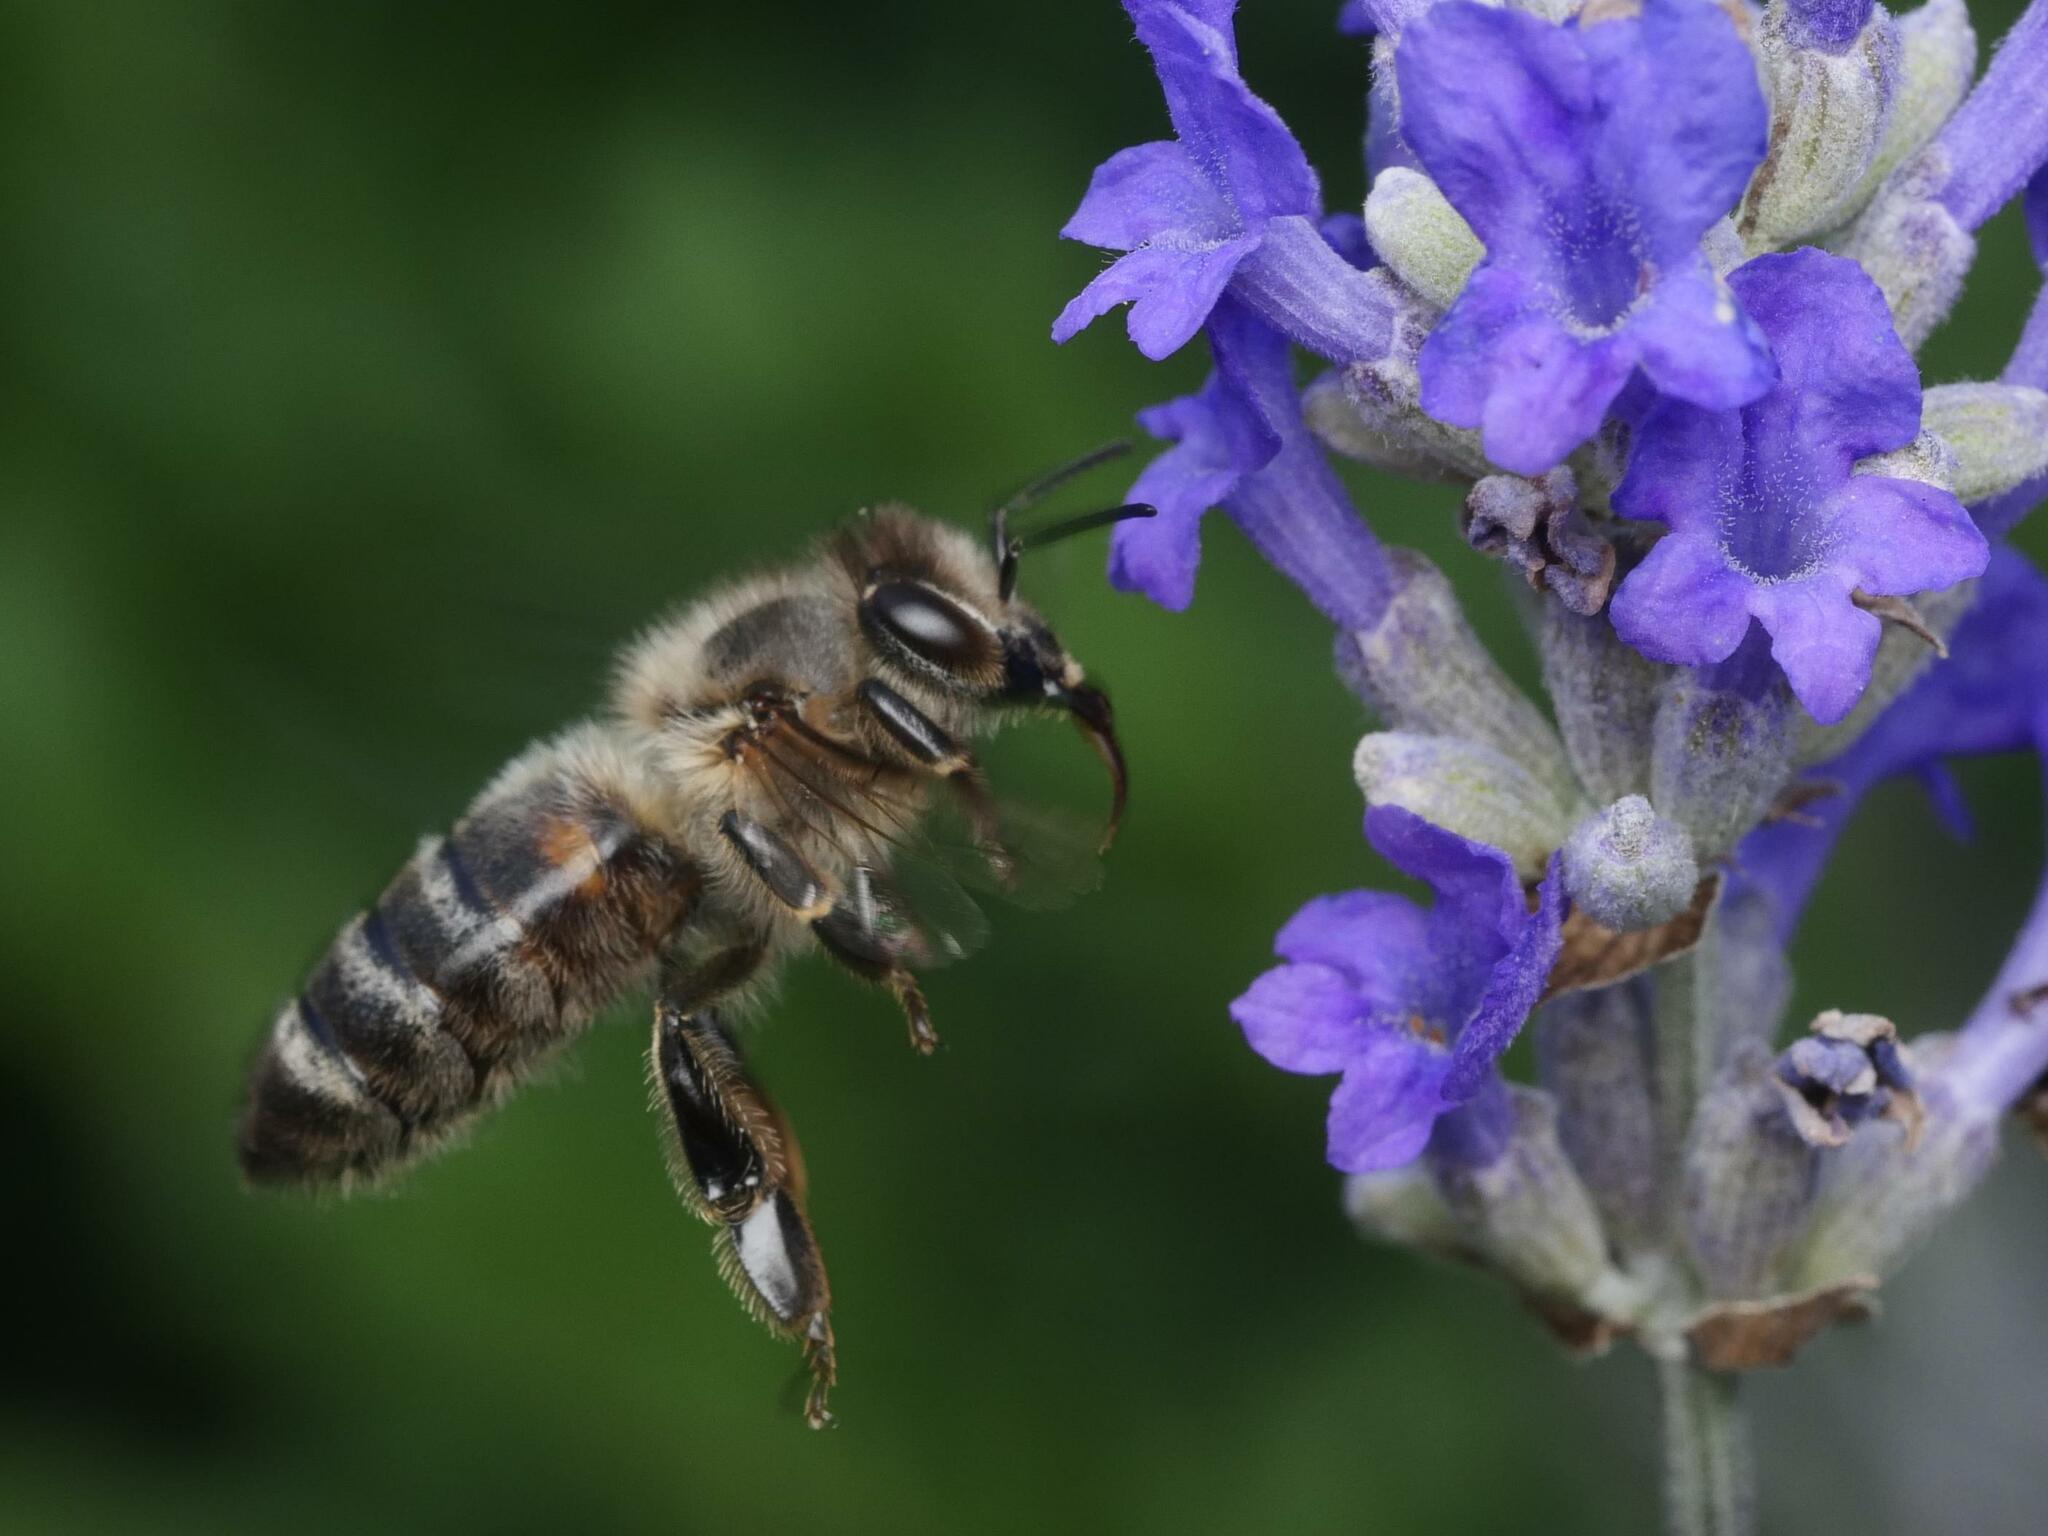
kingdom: Animalia
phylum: Arthropoda
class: Insecta
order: Hymenoptera
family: Apidae
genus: Apis
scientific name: Apis mellifera
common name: Honey bee
